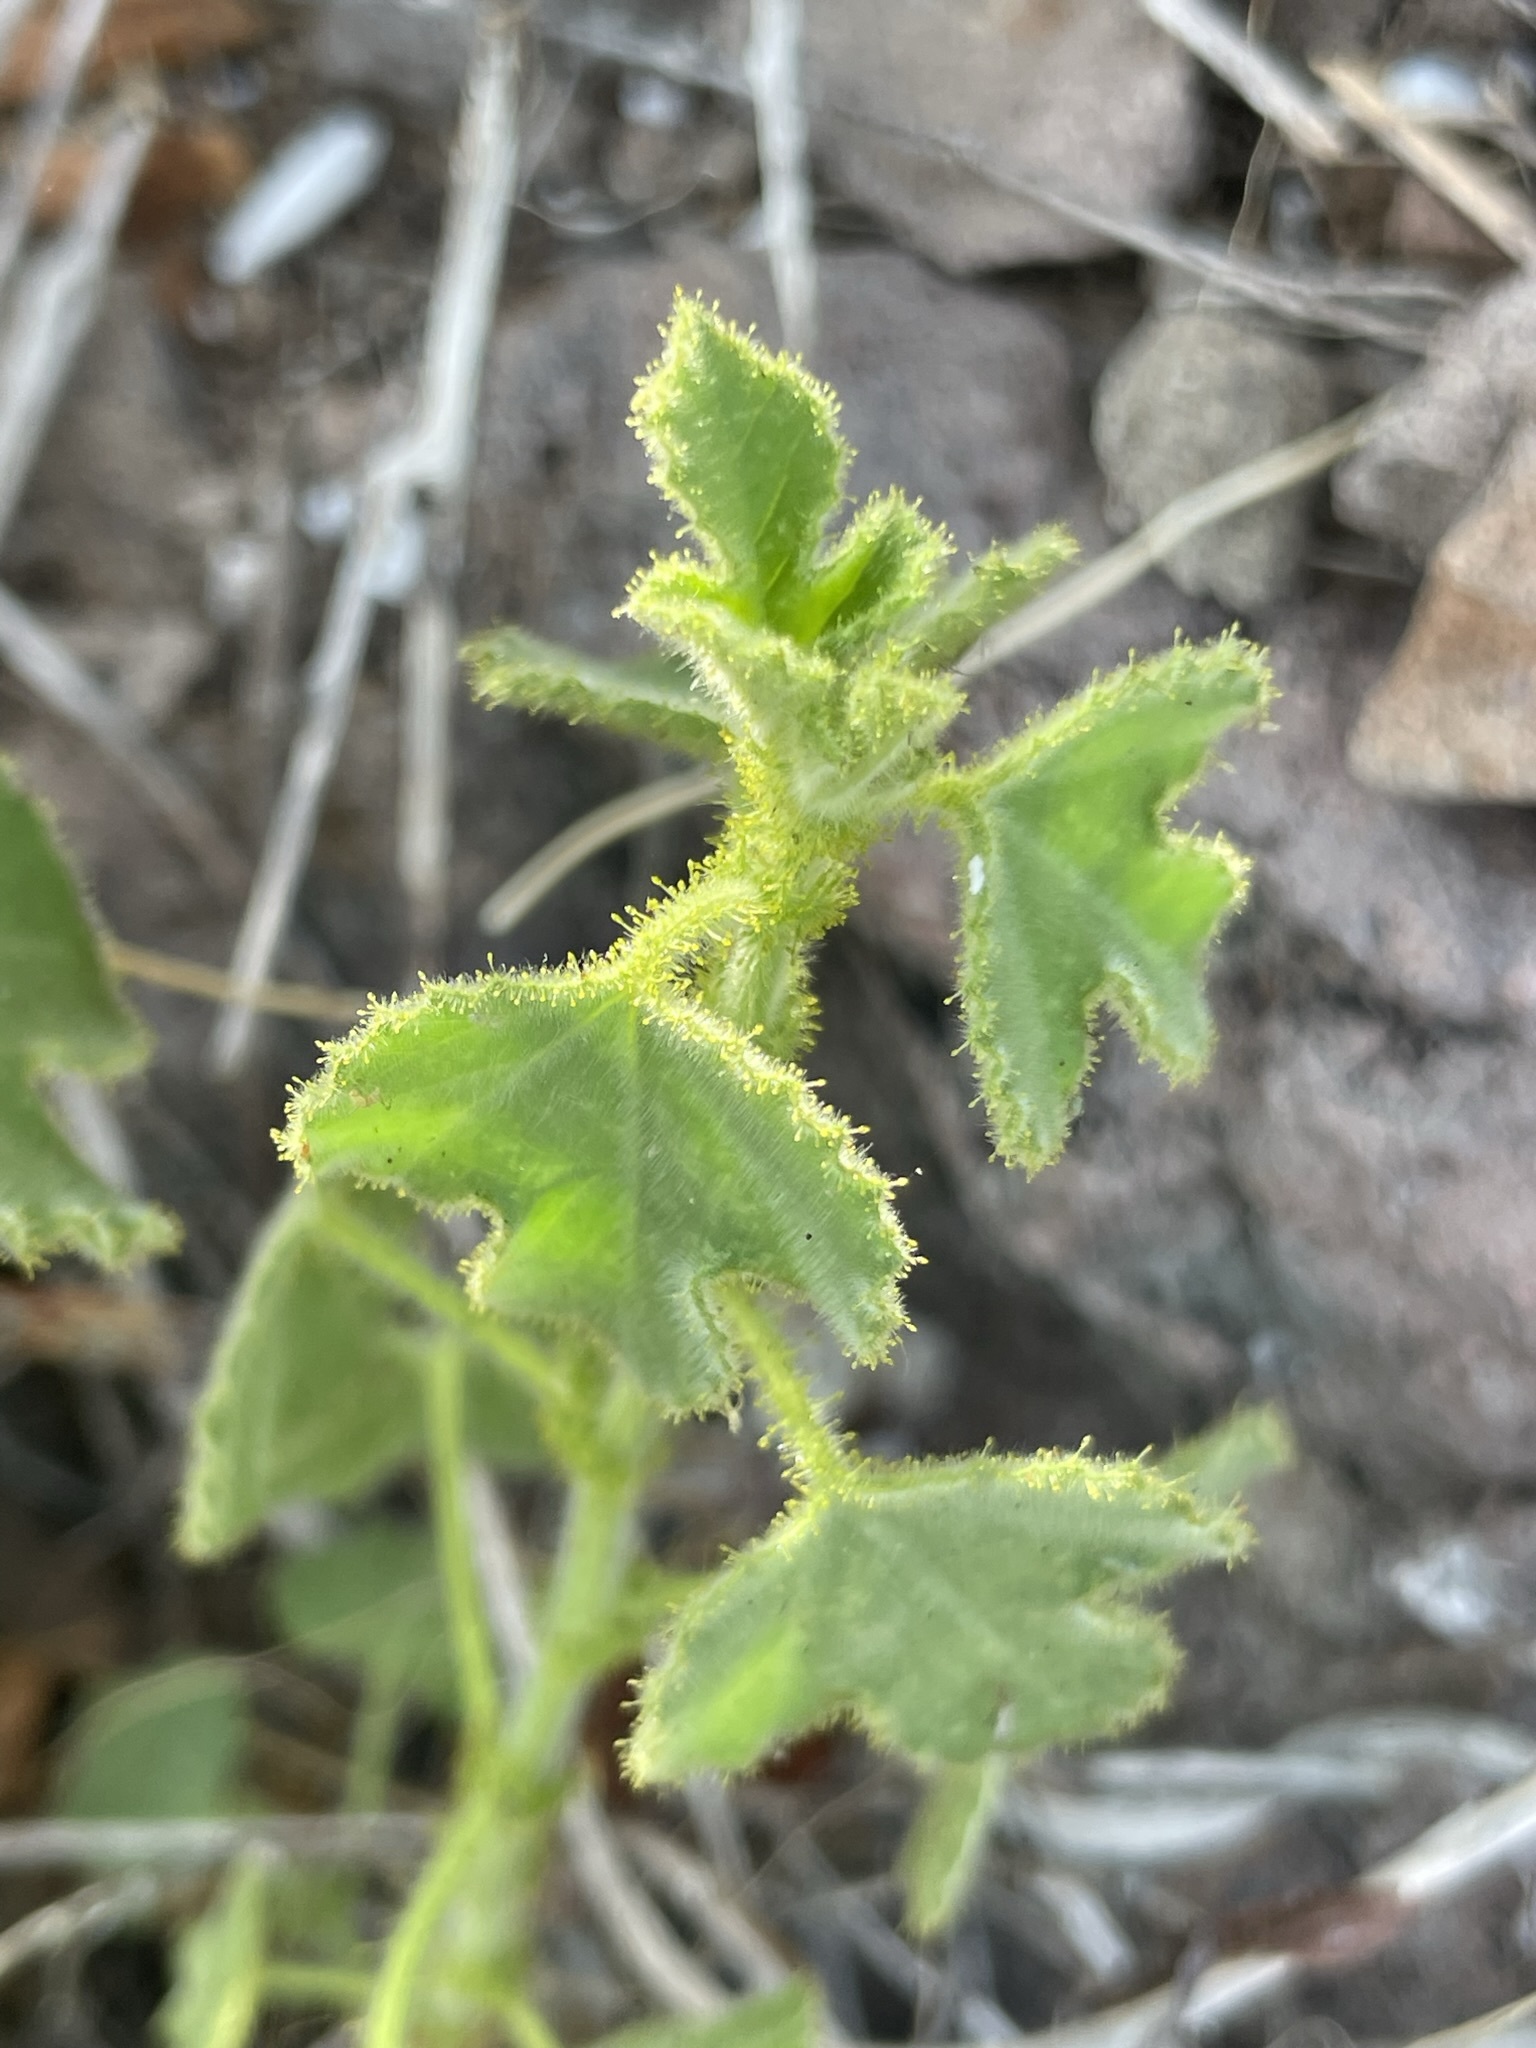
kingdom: Plantae
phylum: Tracheophyta
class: Magnoliopsida
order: Malpighiales
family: Passifloraceae
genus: Passiflora
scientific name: Passiflora palmeri
